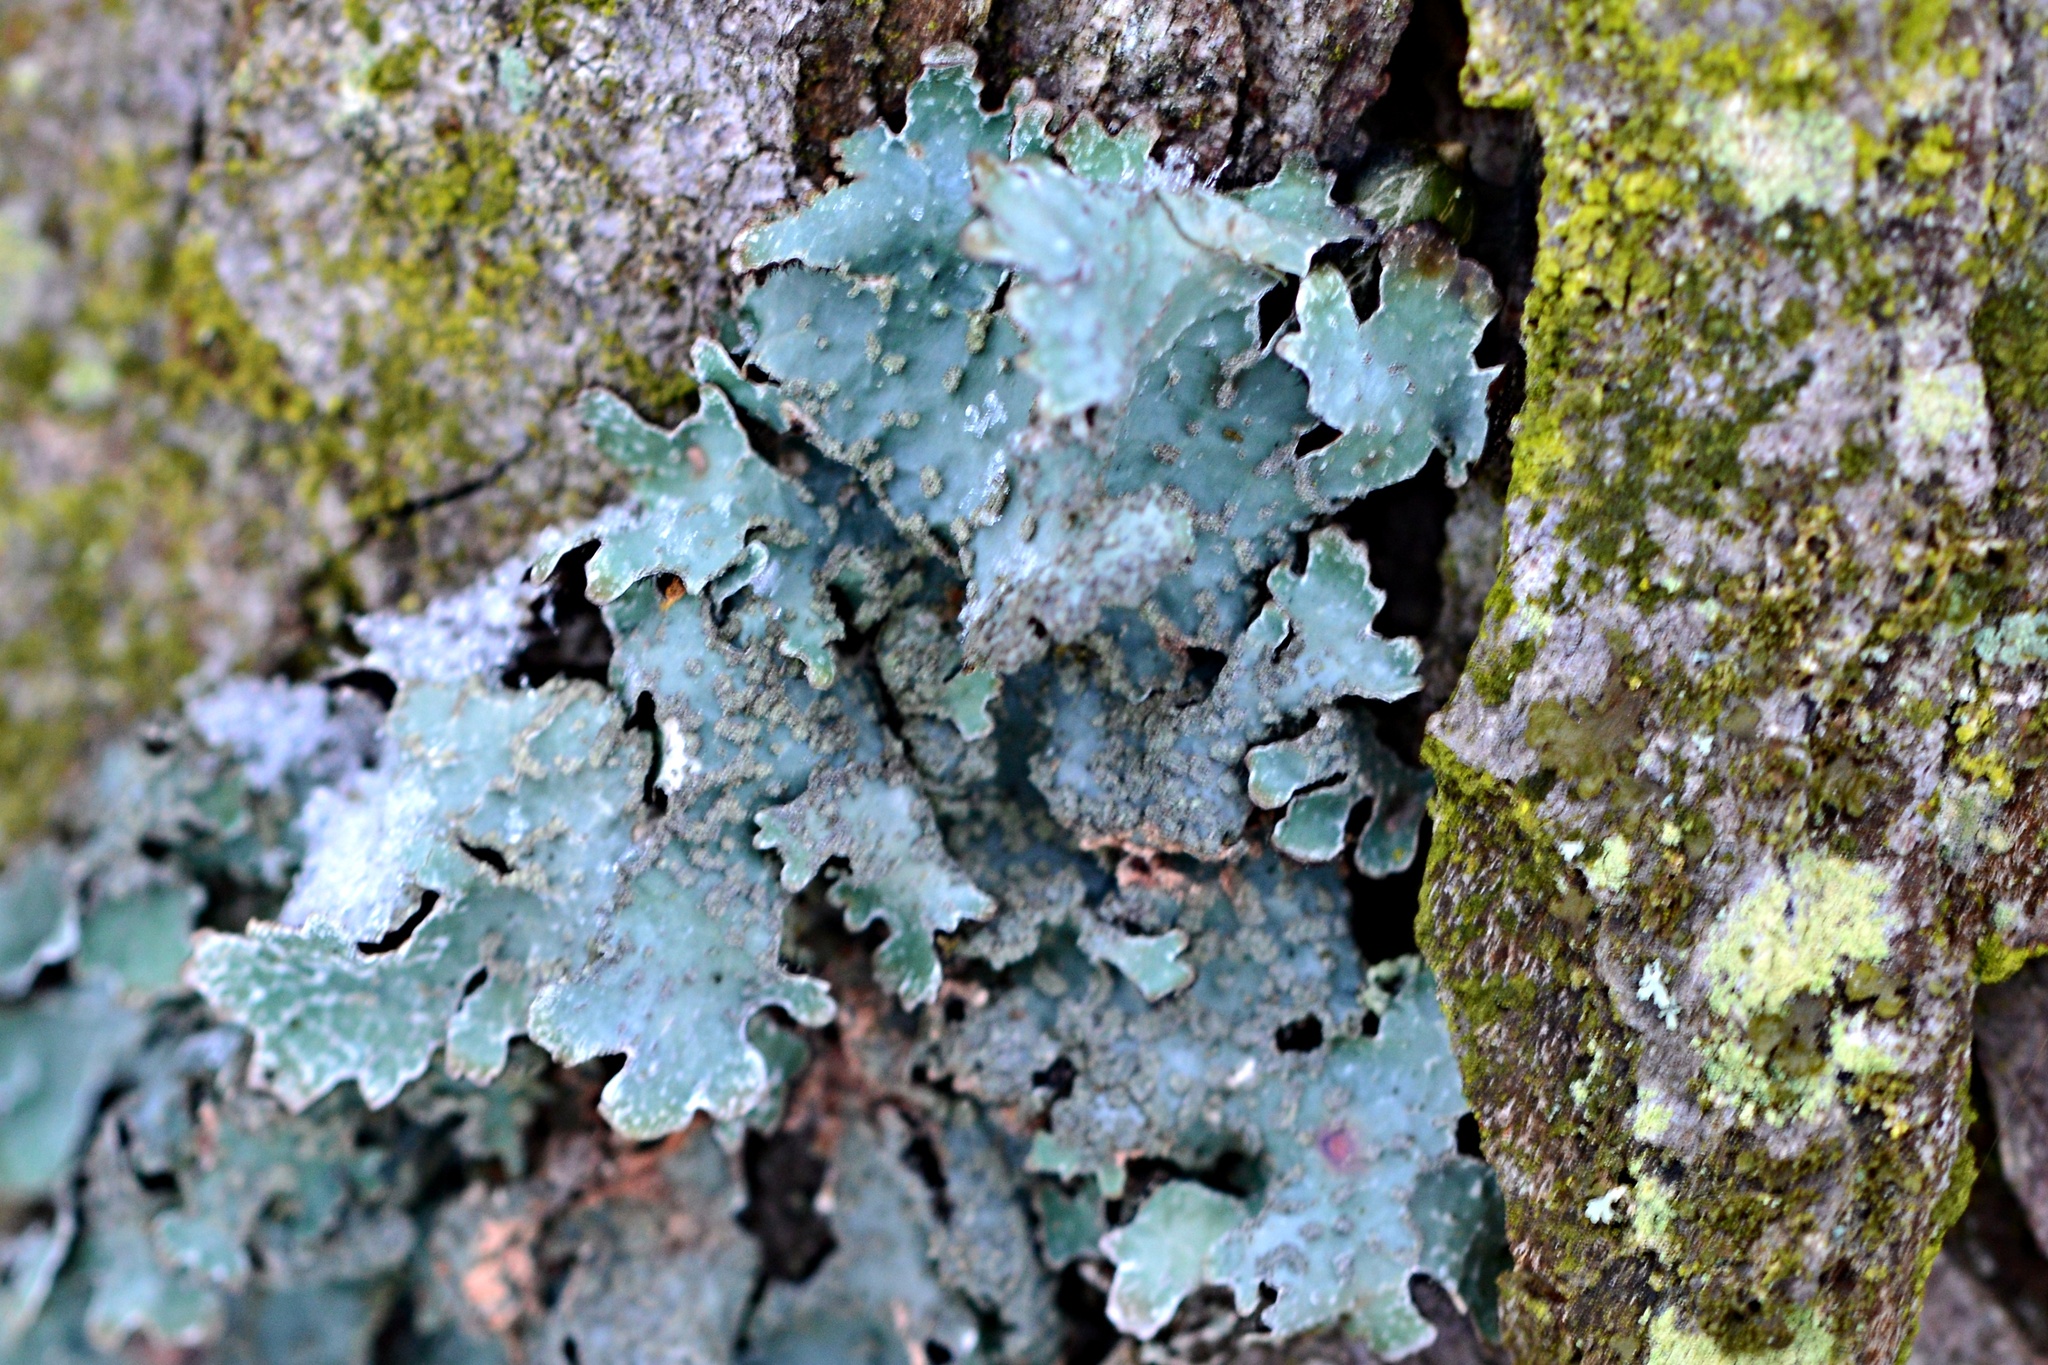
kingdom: Fungi
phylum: Ascomycota
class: Lecanoromycetes
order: Lecanorales
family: Parmeliaceae
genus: Parmelia
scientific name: Parmelia sulcata
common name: Netted shield lichen
